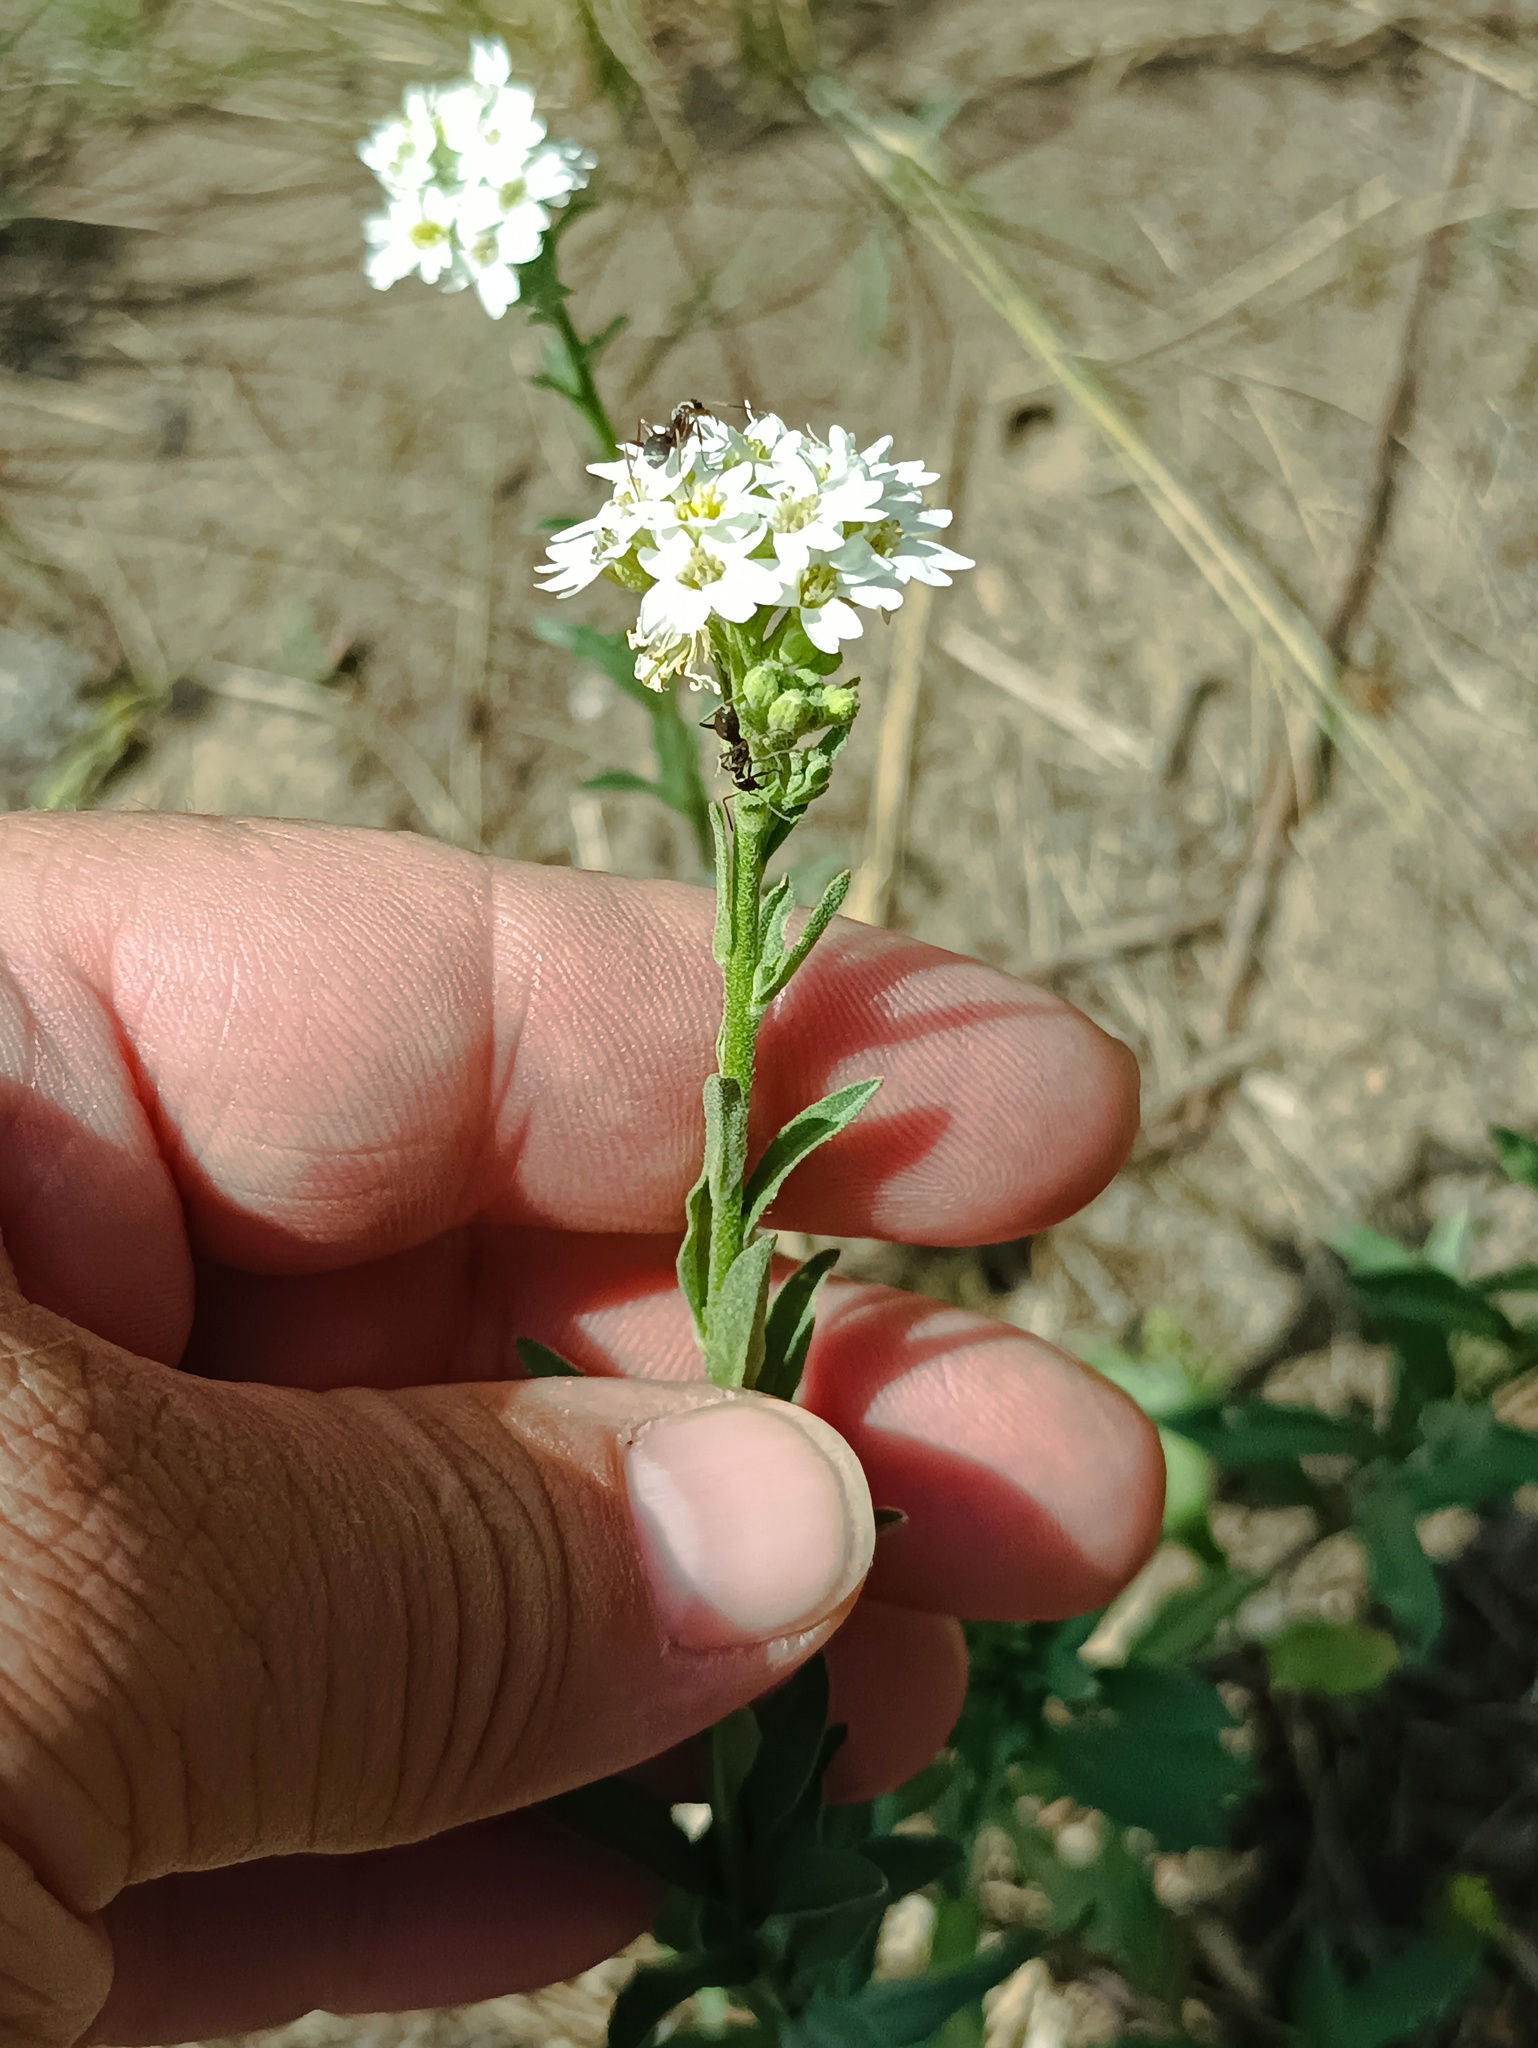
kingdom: Plantae
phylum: Tracheophyta
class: Magnoliopsida
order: Brassicales
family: Brassicaceae
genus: Berteroa
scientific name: Berteroa incana
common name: Hoary alison
